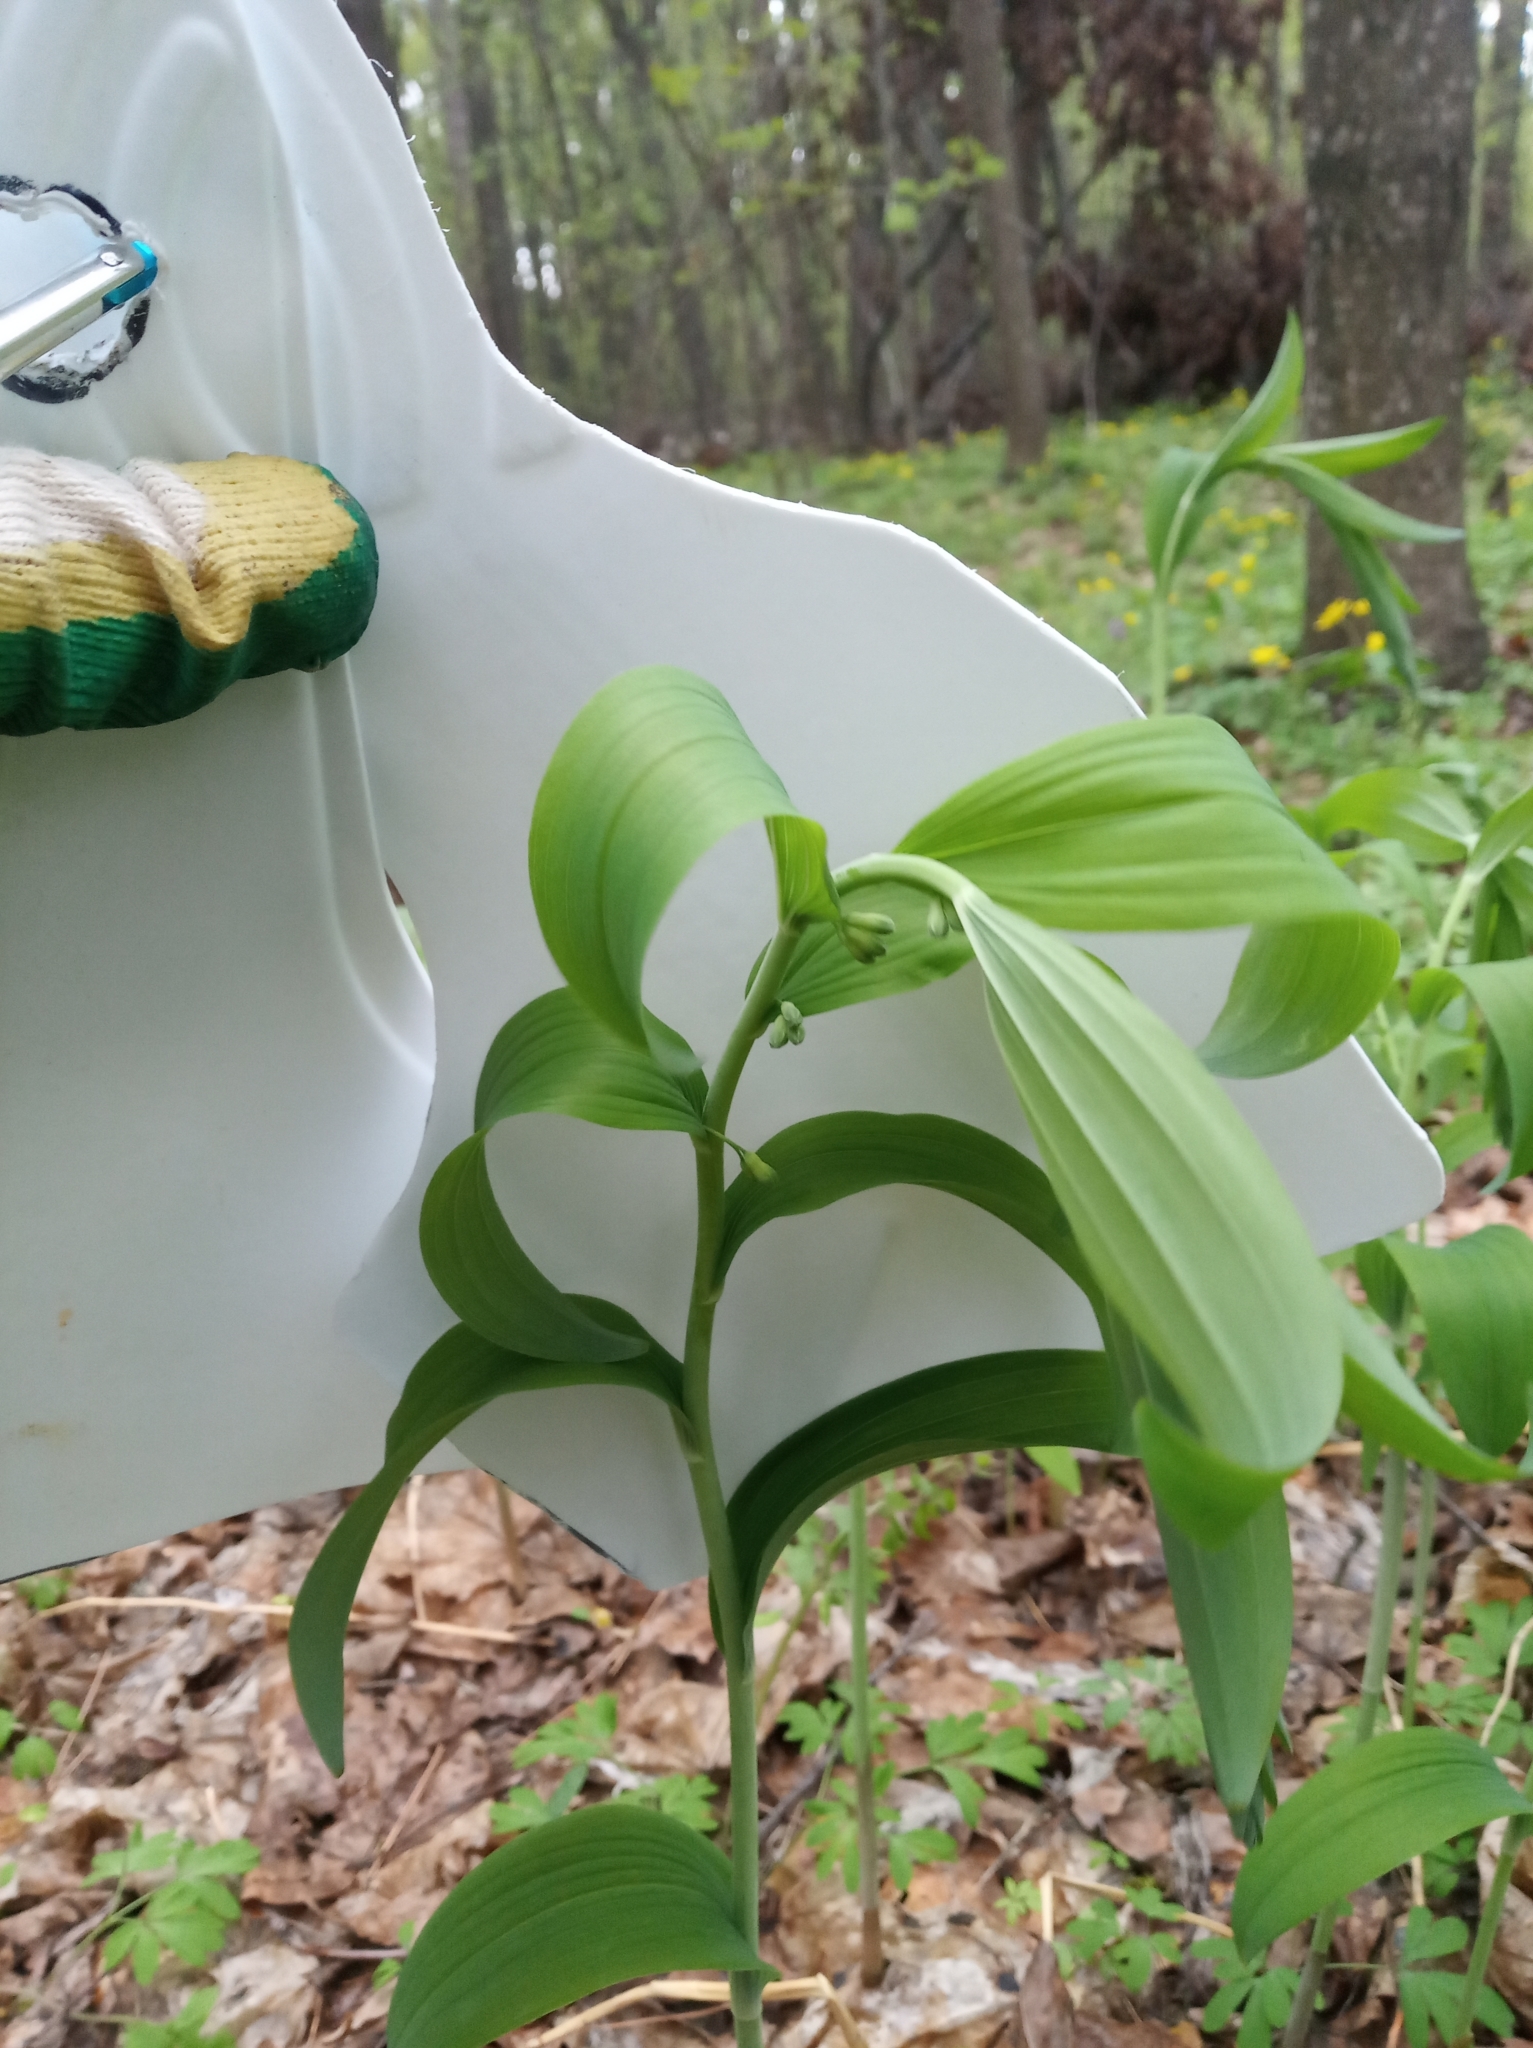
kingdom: Plantae
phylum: Tracheophyta
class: Liliopsida
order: Asparagales
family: Asparagaceae
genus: Polygonatum
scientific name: Polygonatum multiflorum
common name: Solomon's-seal
